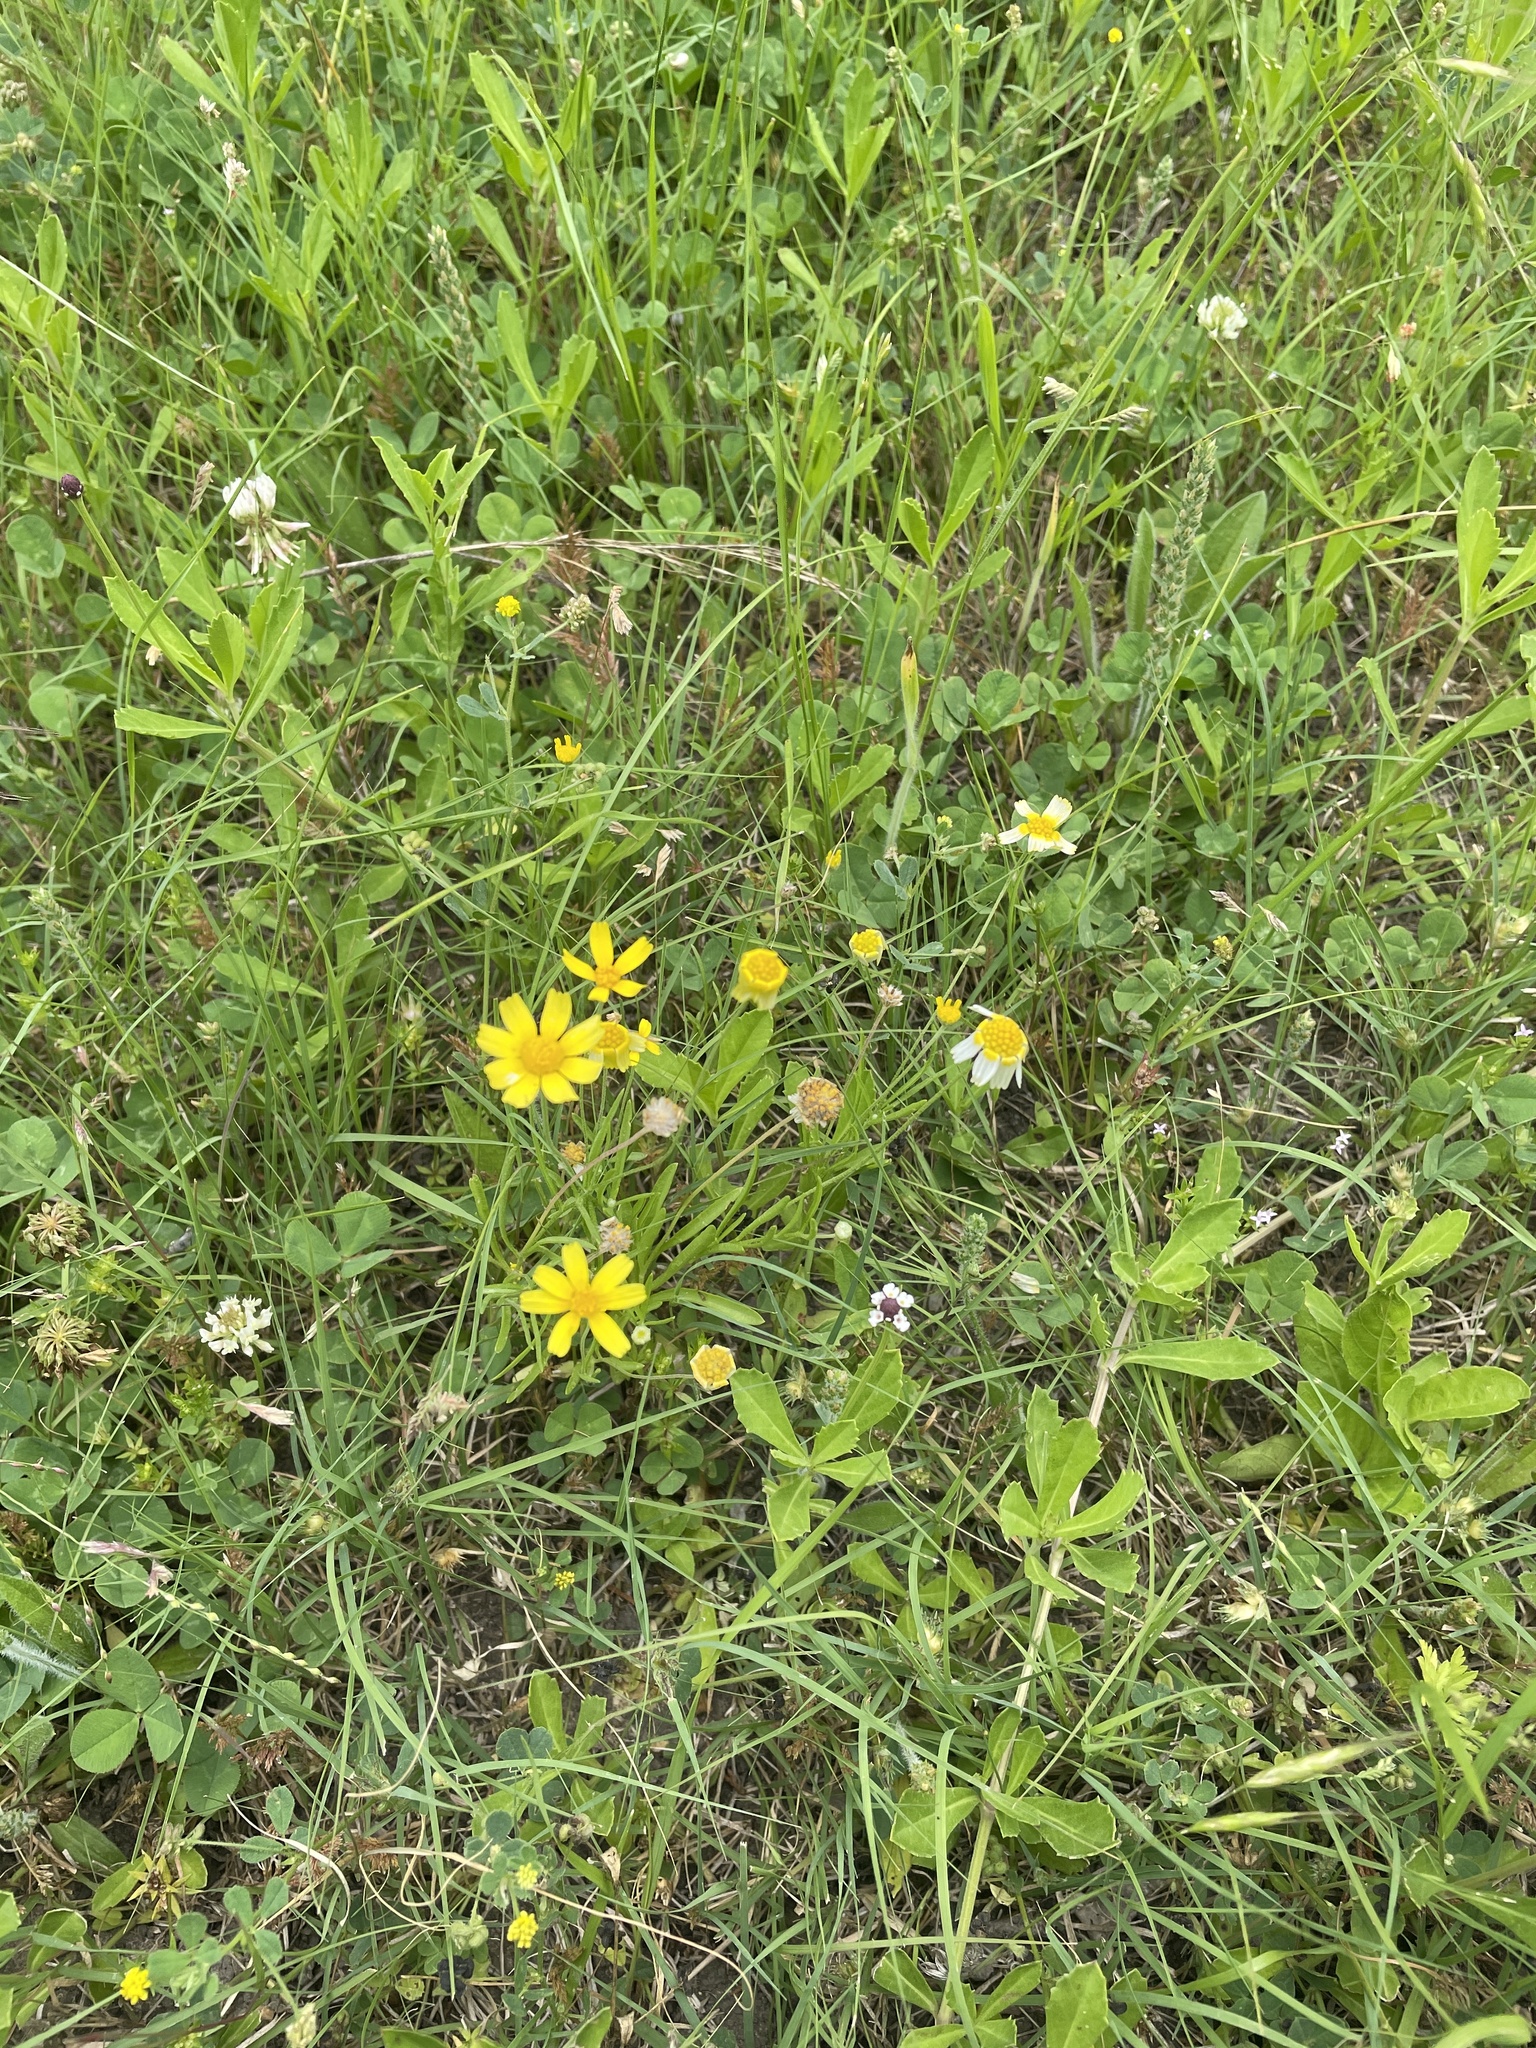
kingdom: Plantae
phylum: Tracheophyta
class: Magnoliopsida
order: Asterales
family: Asteraceae
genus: Tetraneuris
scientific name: Tetraneuris linearifolia
